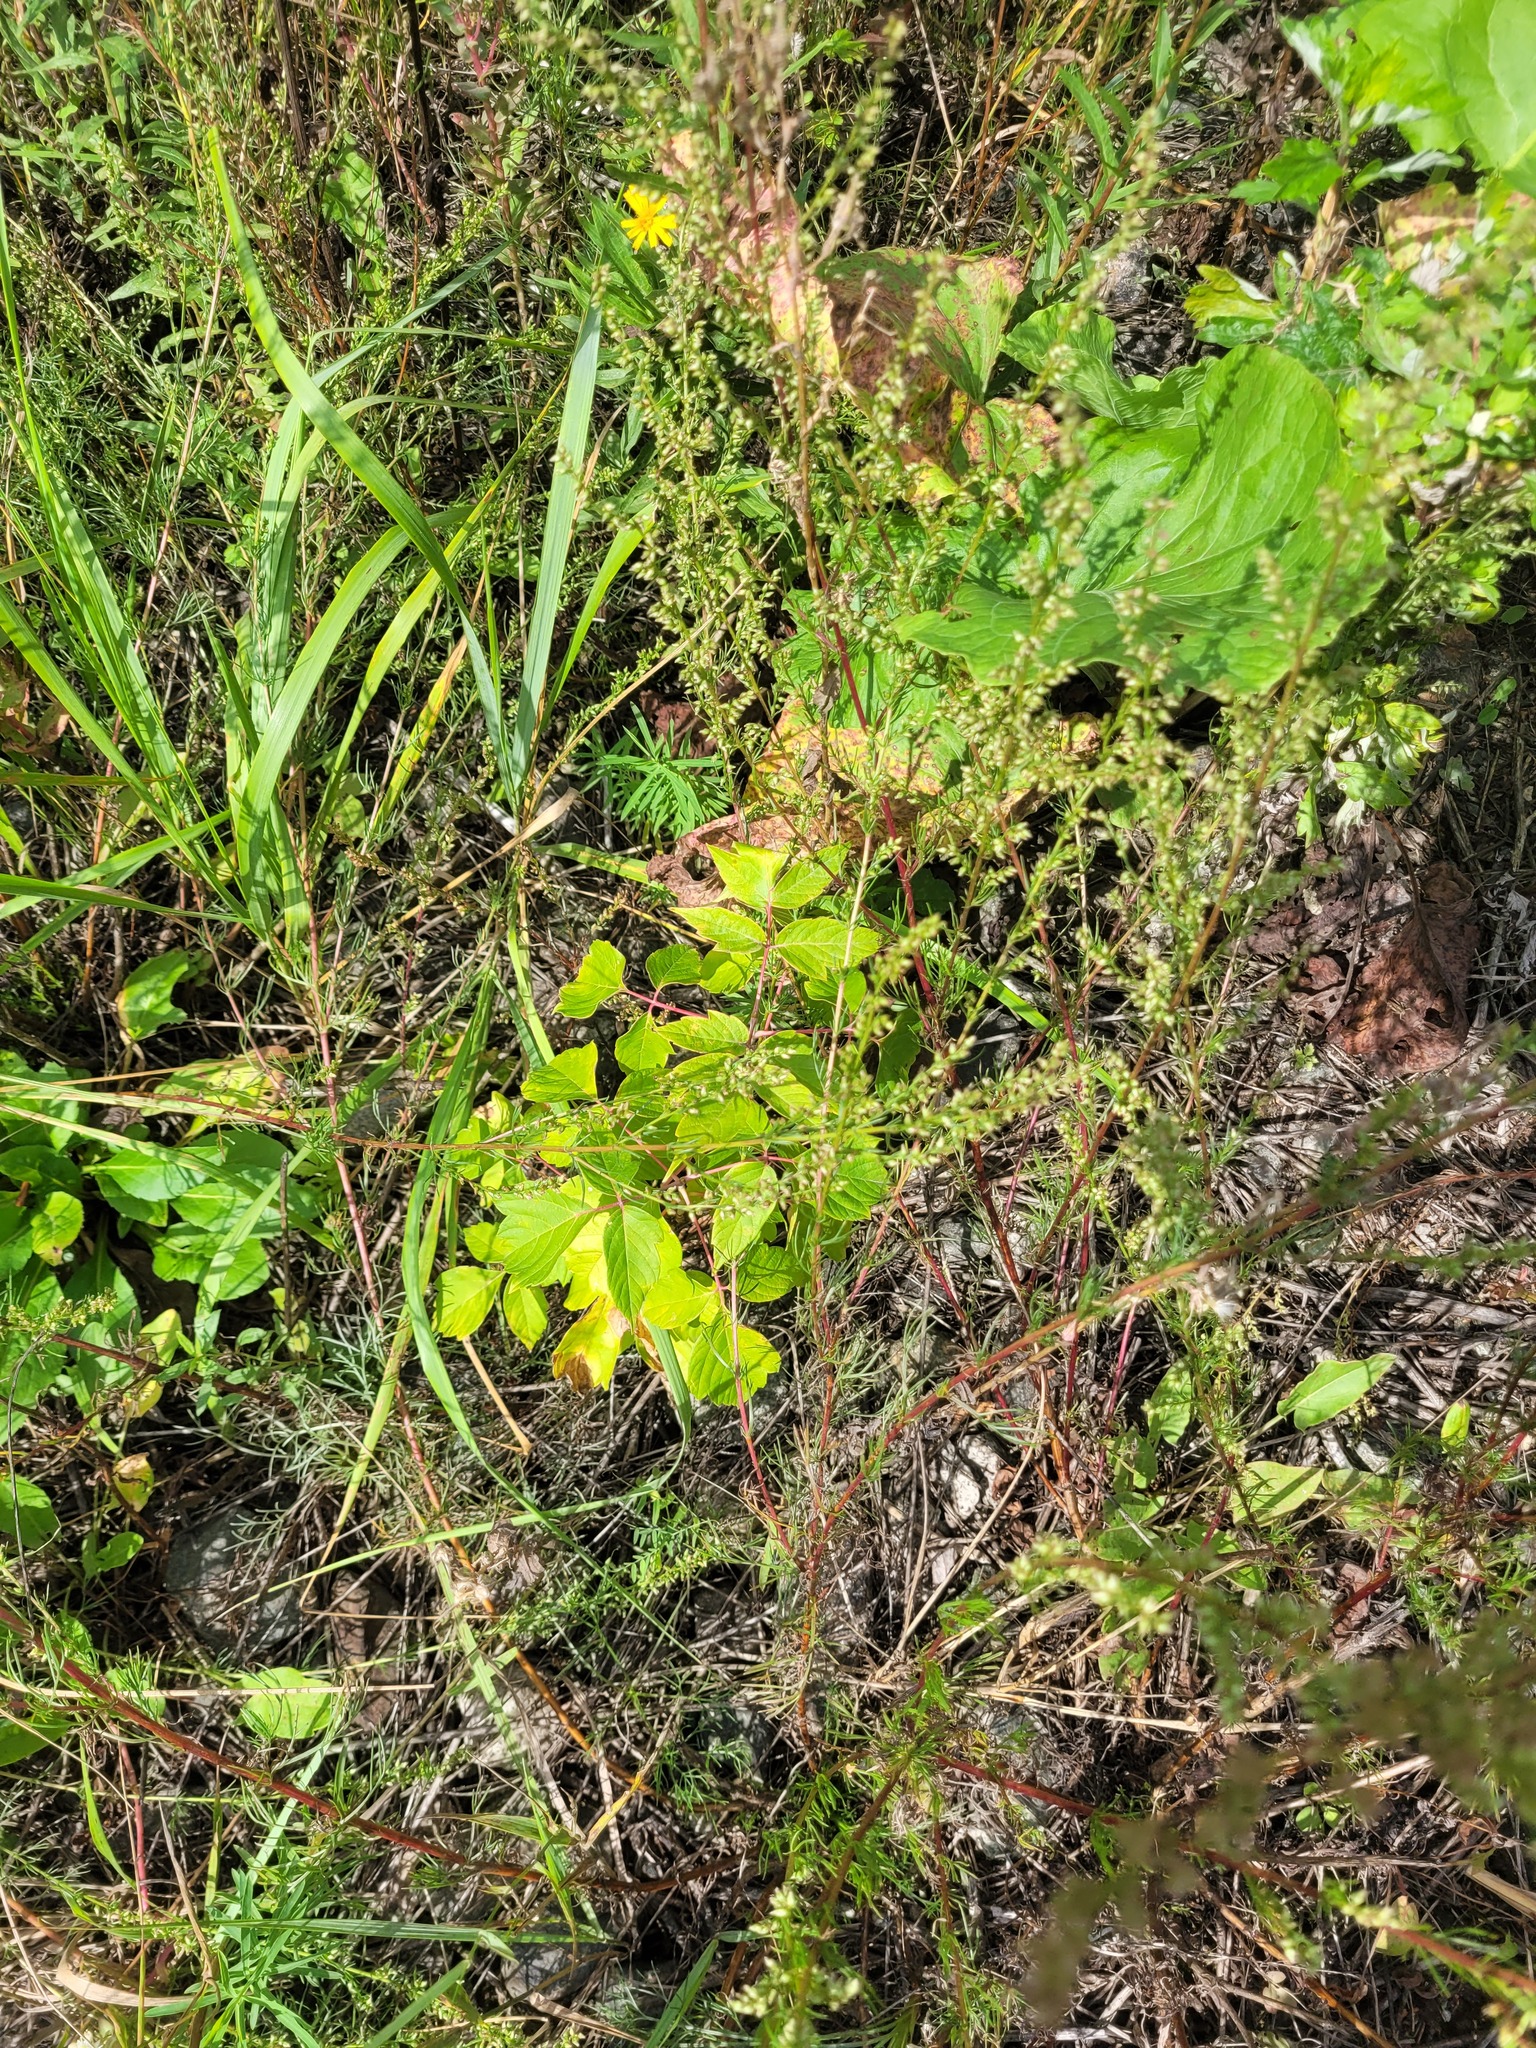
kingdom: Plantae
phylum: Tracheophyta
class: Magnoliopsida
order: Sapindales
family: Sapindaceae
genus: Acer
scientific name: Acer negundo
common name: Ashleaf maple
